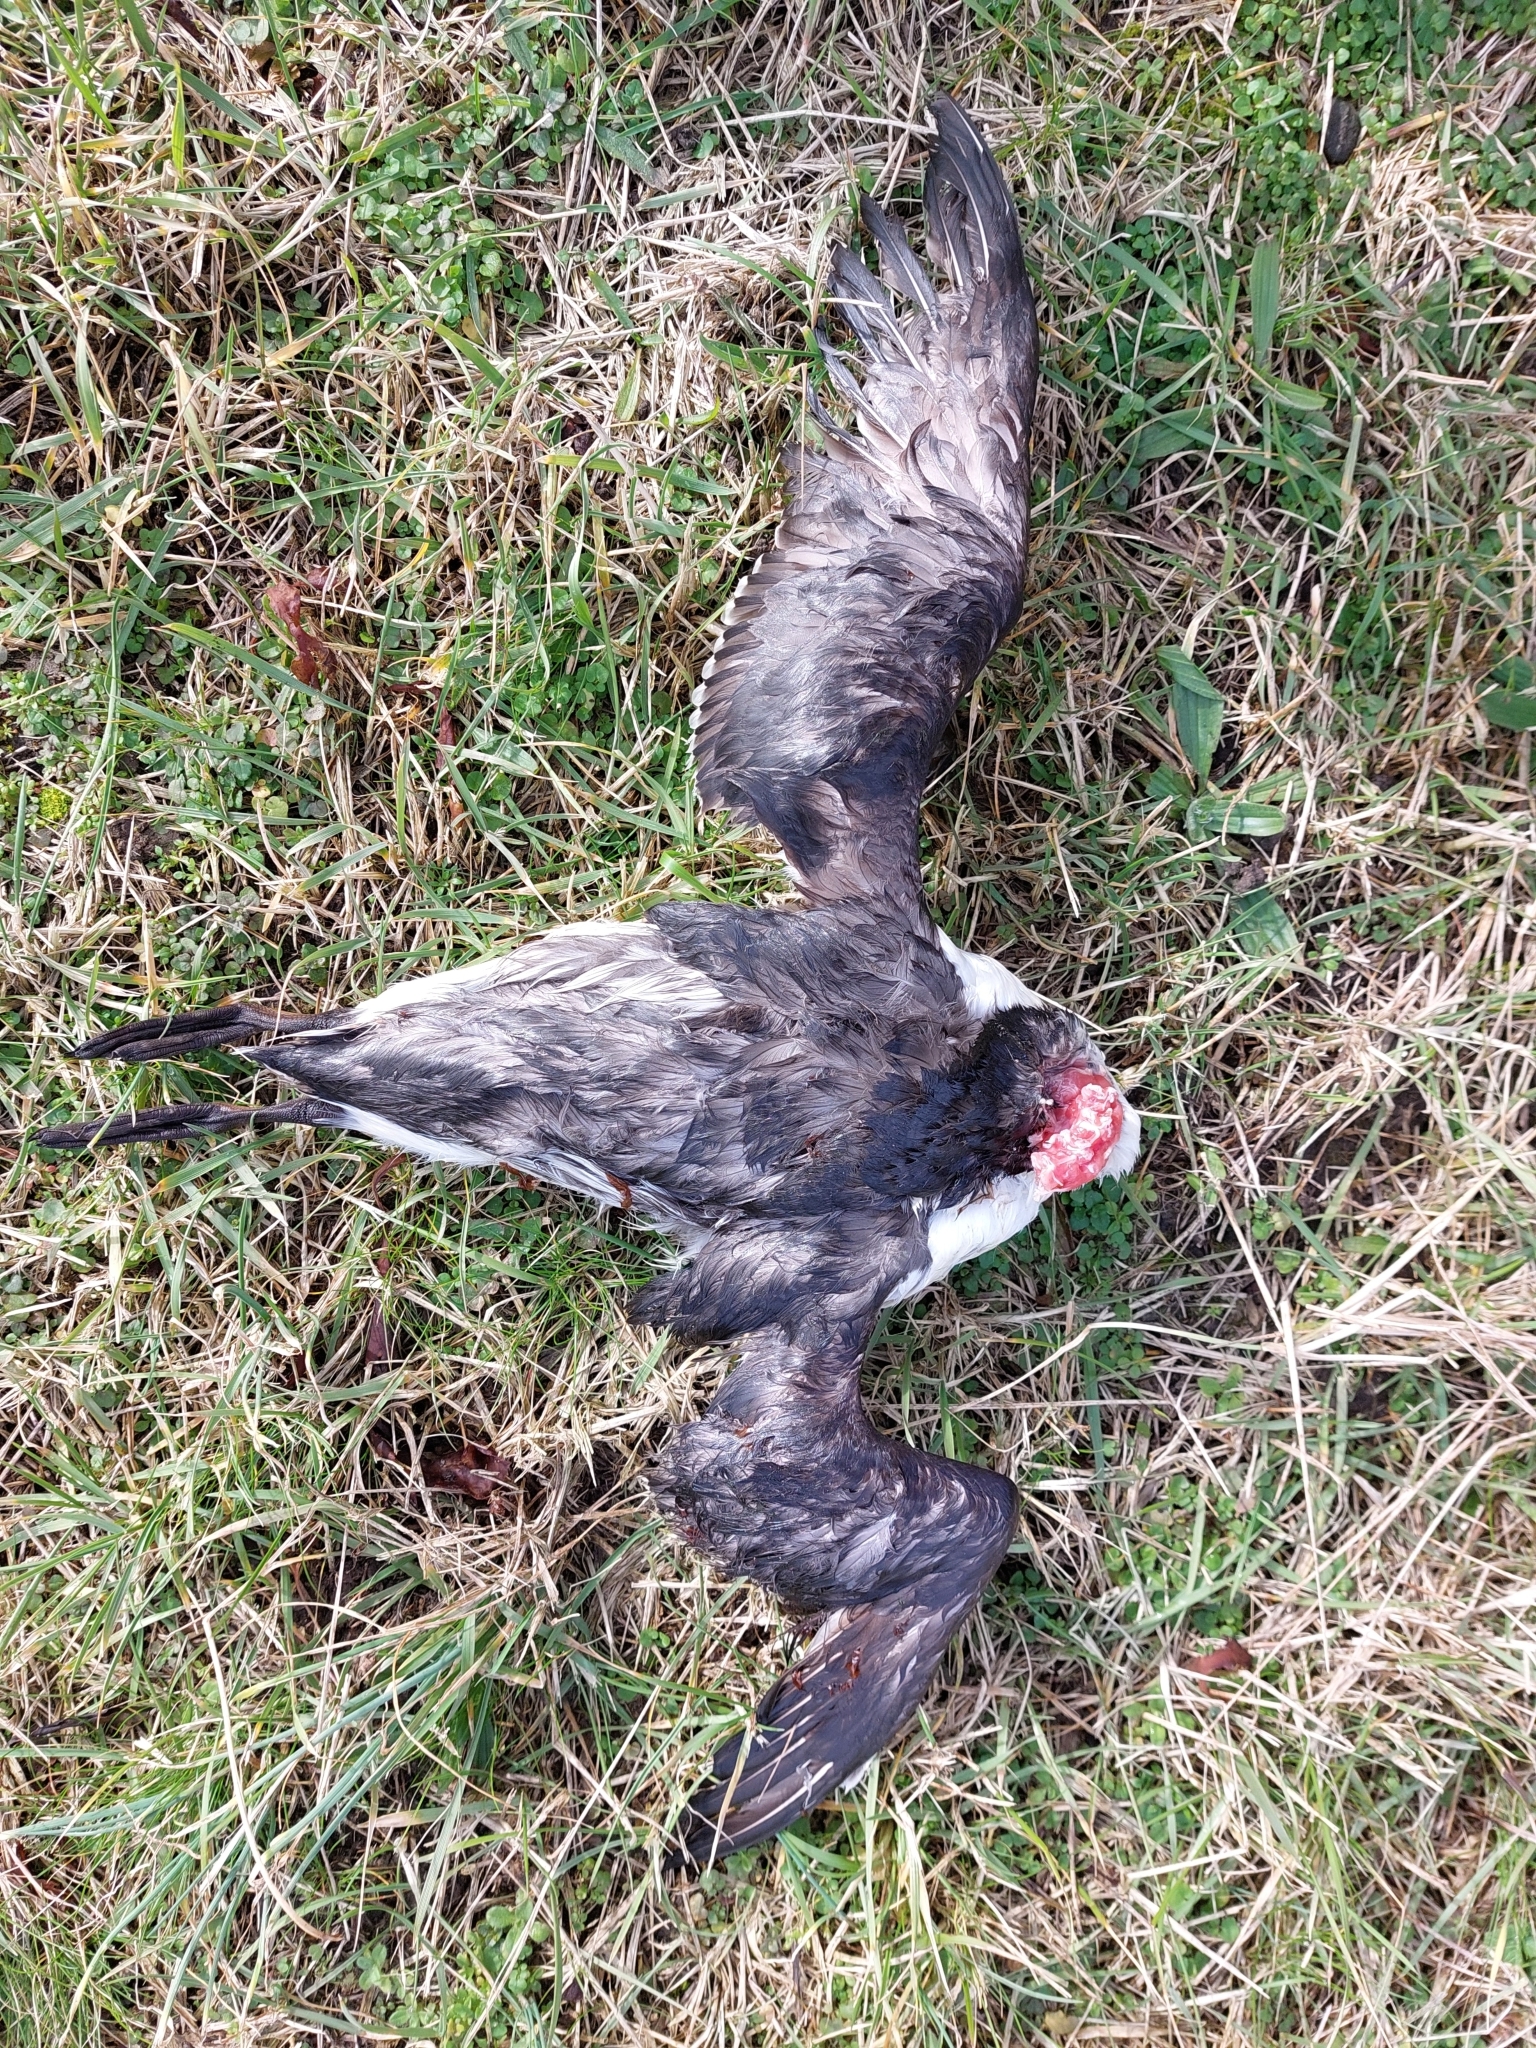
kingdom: Animalia
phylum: Chordata
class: Aves
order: Charadriiformes
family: Alcidae
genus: Uria
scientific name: Uria aalge
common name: Common murre
